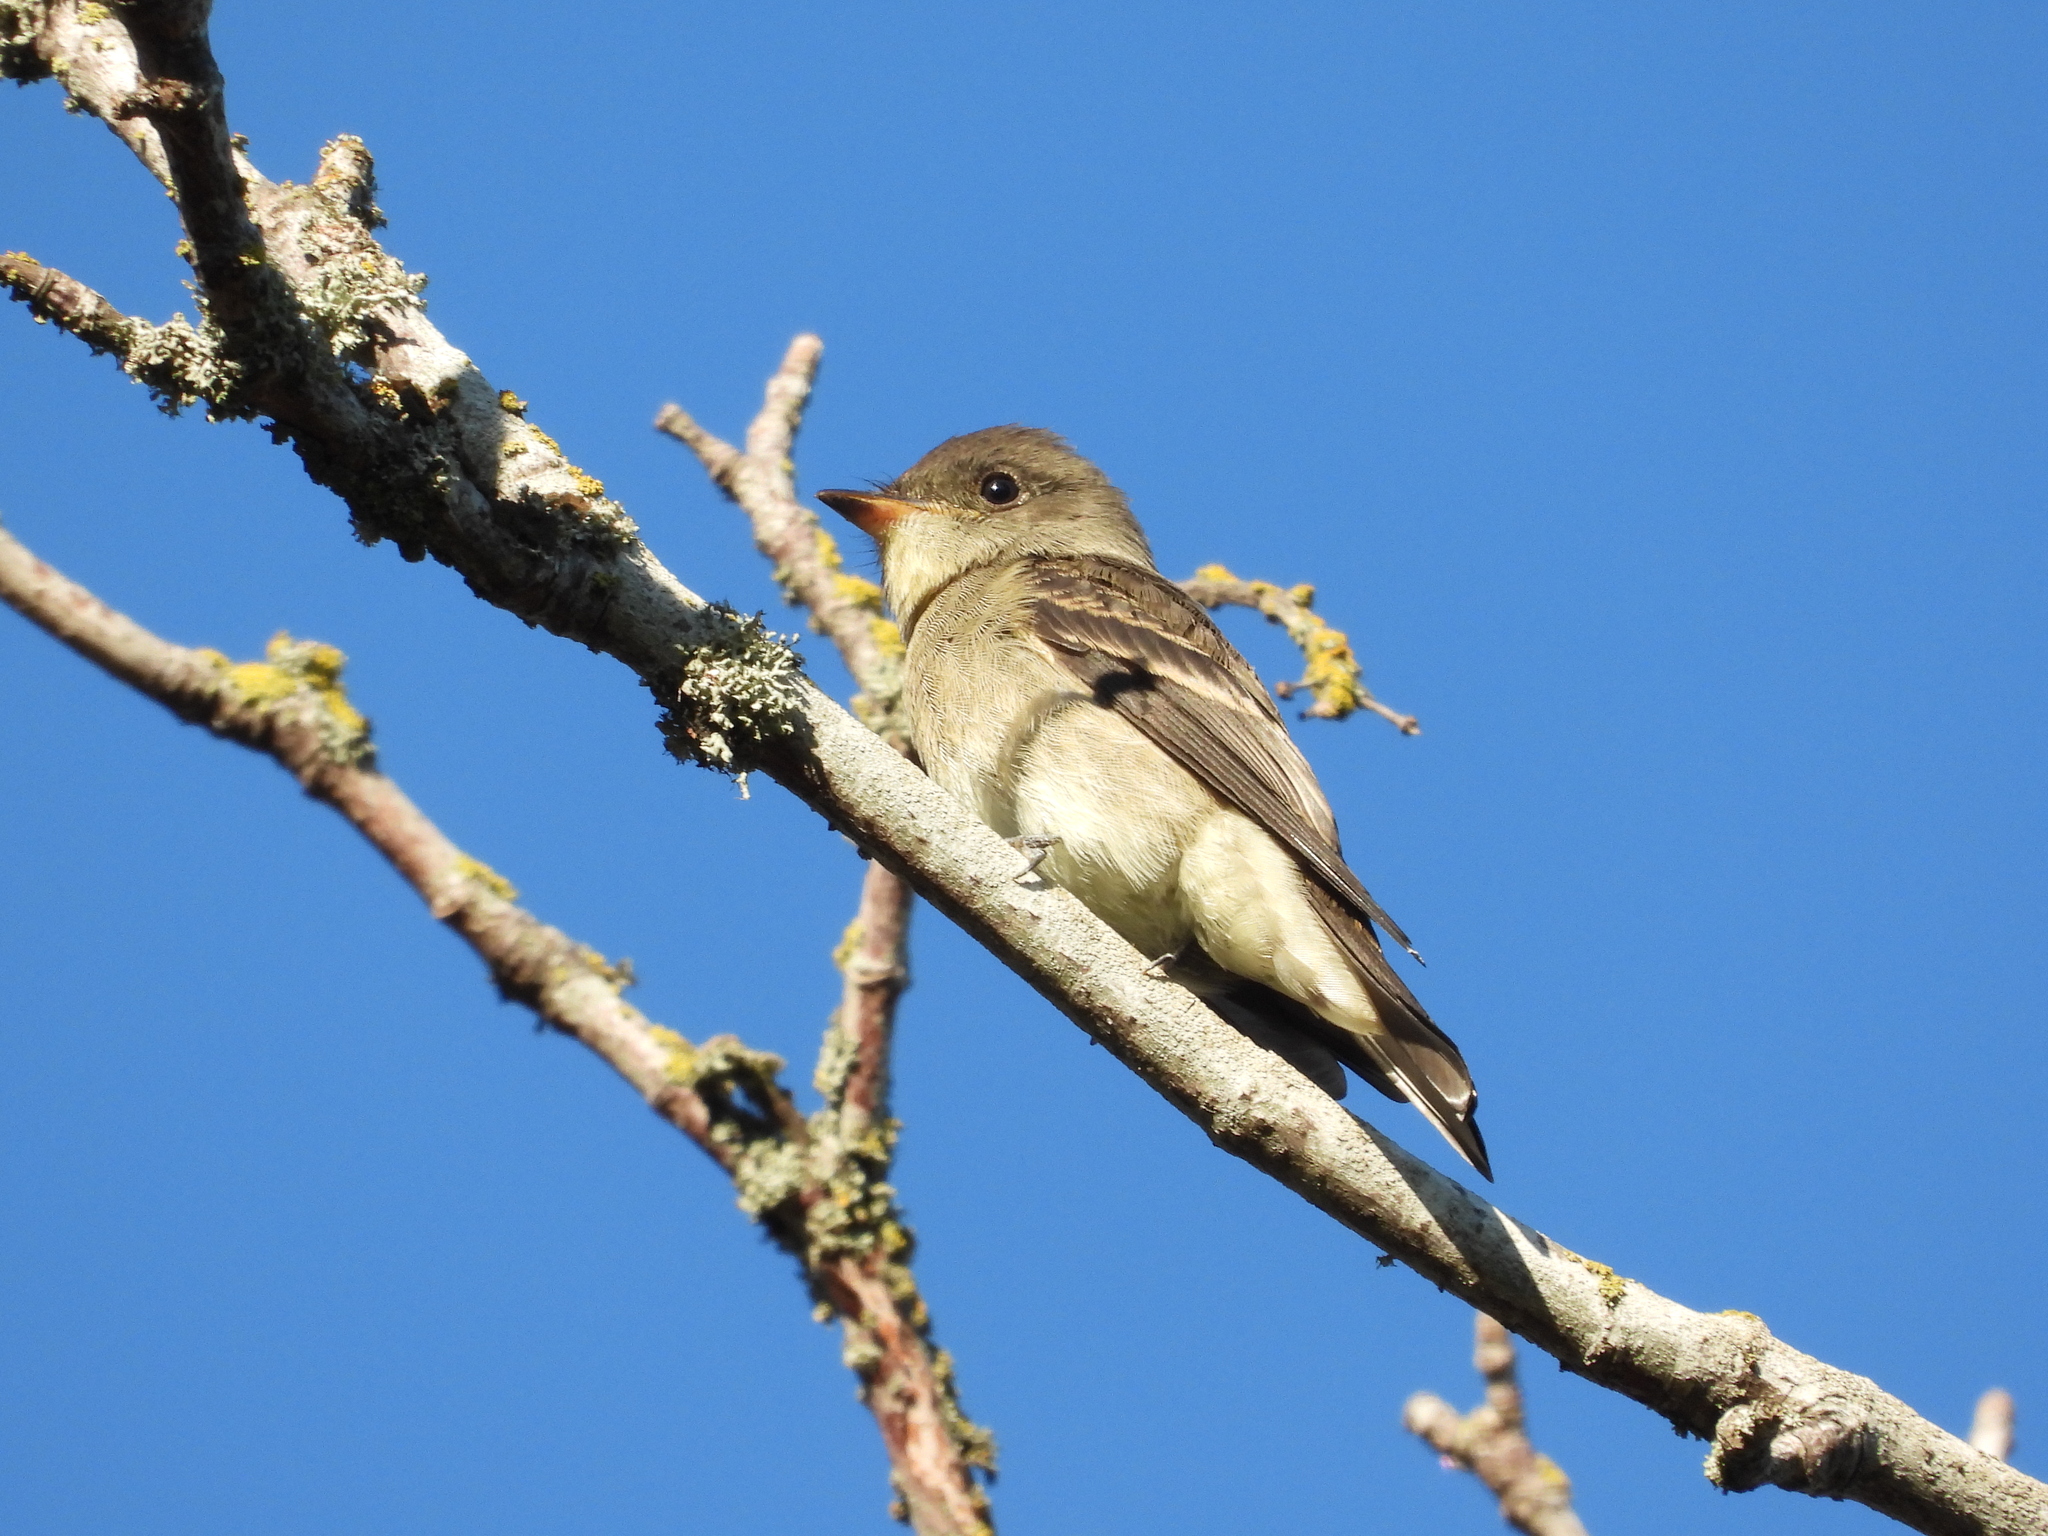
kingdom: Animalia
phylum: Chordata
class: Aves
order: Passeriformes
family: Tyrannidae
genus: Contopus
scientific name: Contopus sordidulus
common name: Western wood-pewee
